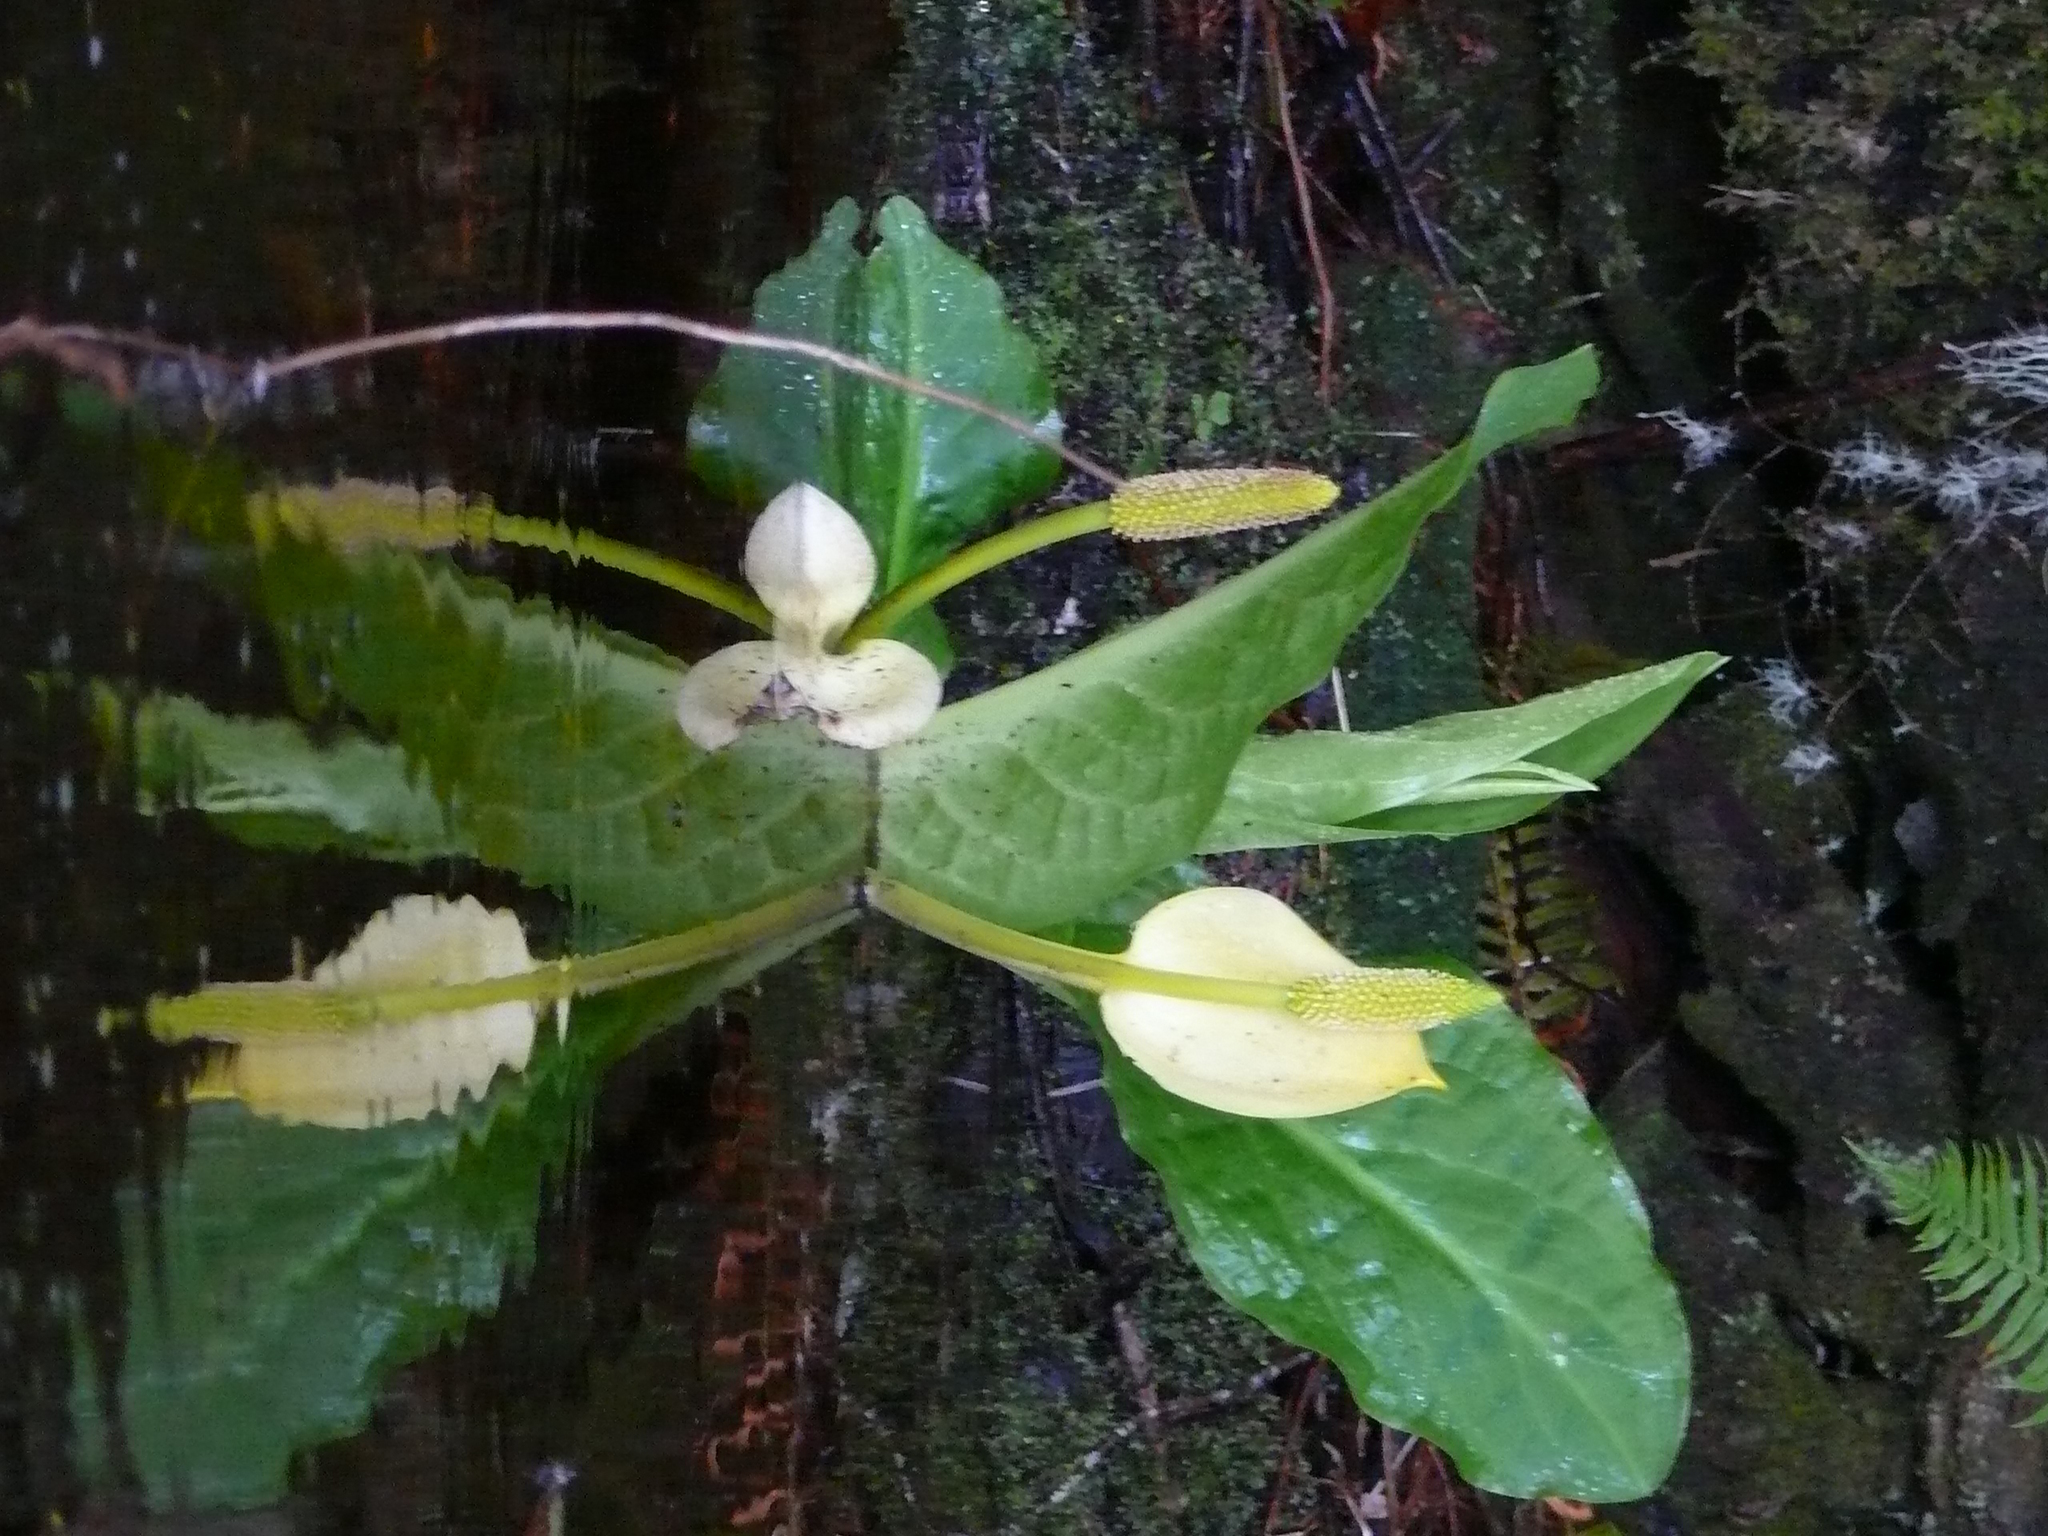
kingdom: Plantae
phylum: Tracheophyta
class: Liliopsida
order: Alismatales
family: Araceae
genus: Lysichiton
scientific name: Lysichiton americanus
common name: American skunk cabbage
